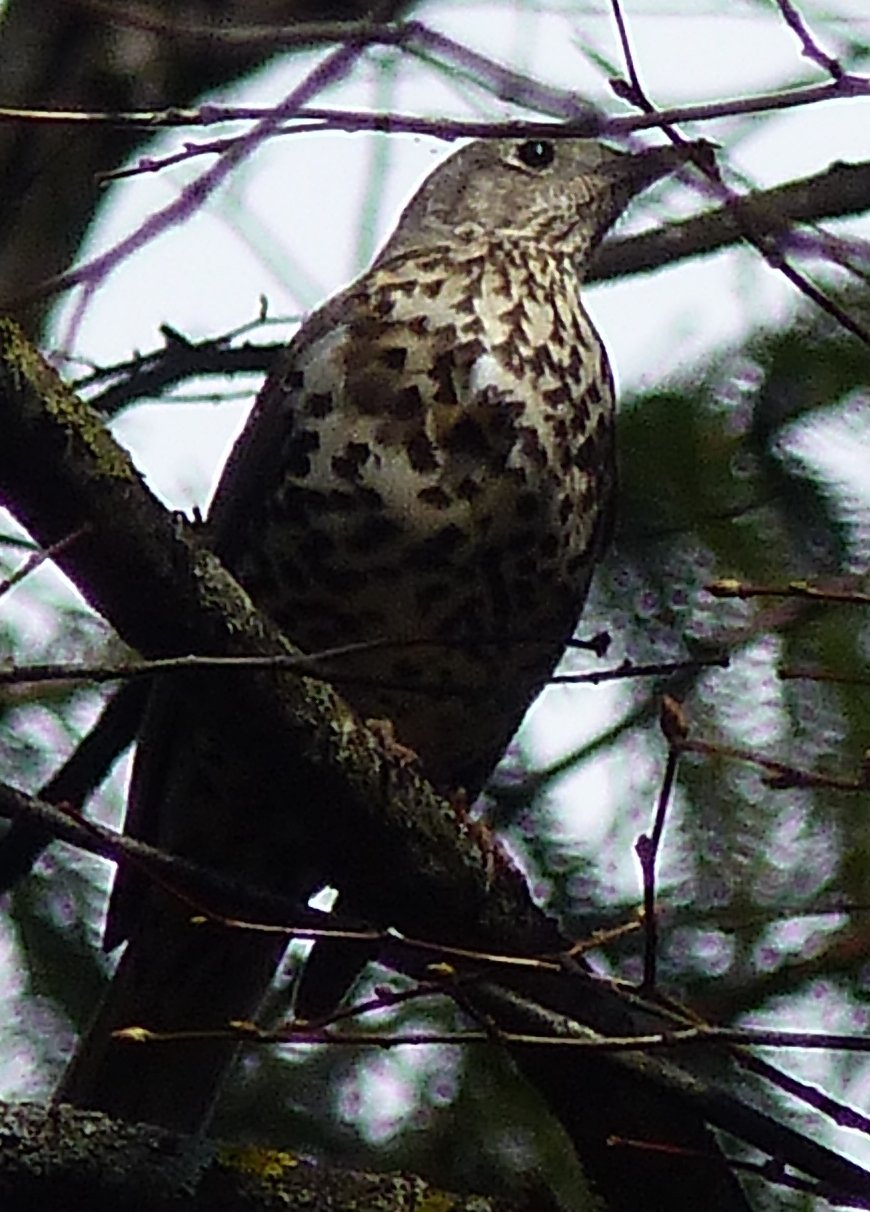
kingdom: Animalia
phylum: Chordata
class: Aves
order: Passeriformes
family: Turdidae
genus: Turdus
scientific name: Turdus viscivorus
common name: Mistle thrush
